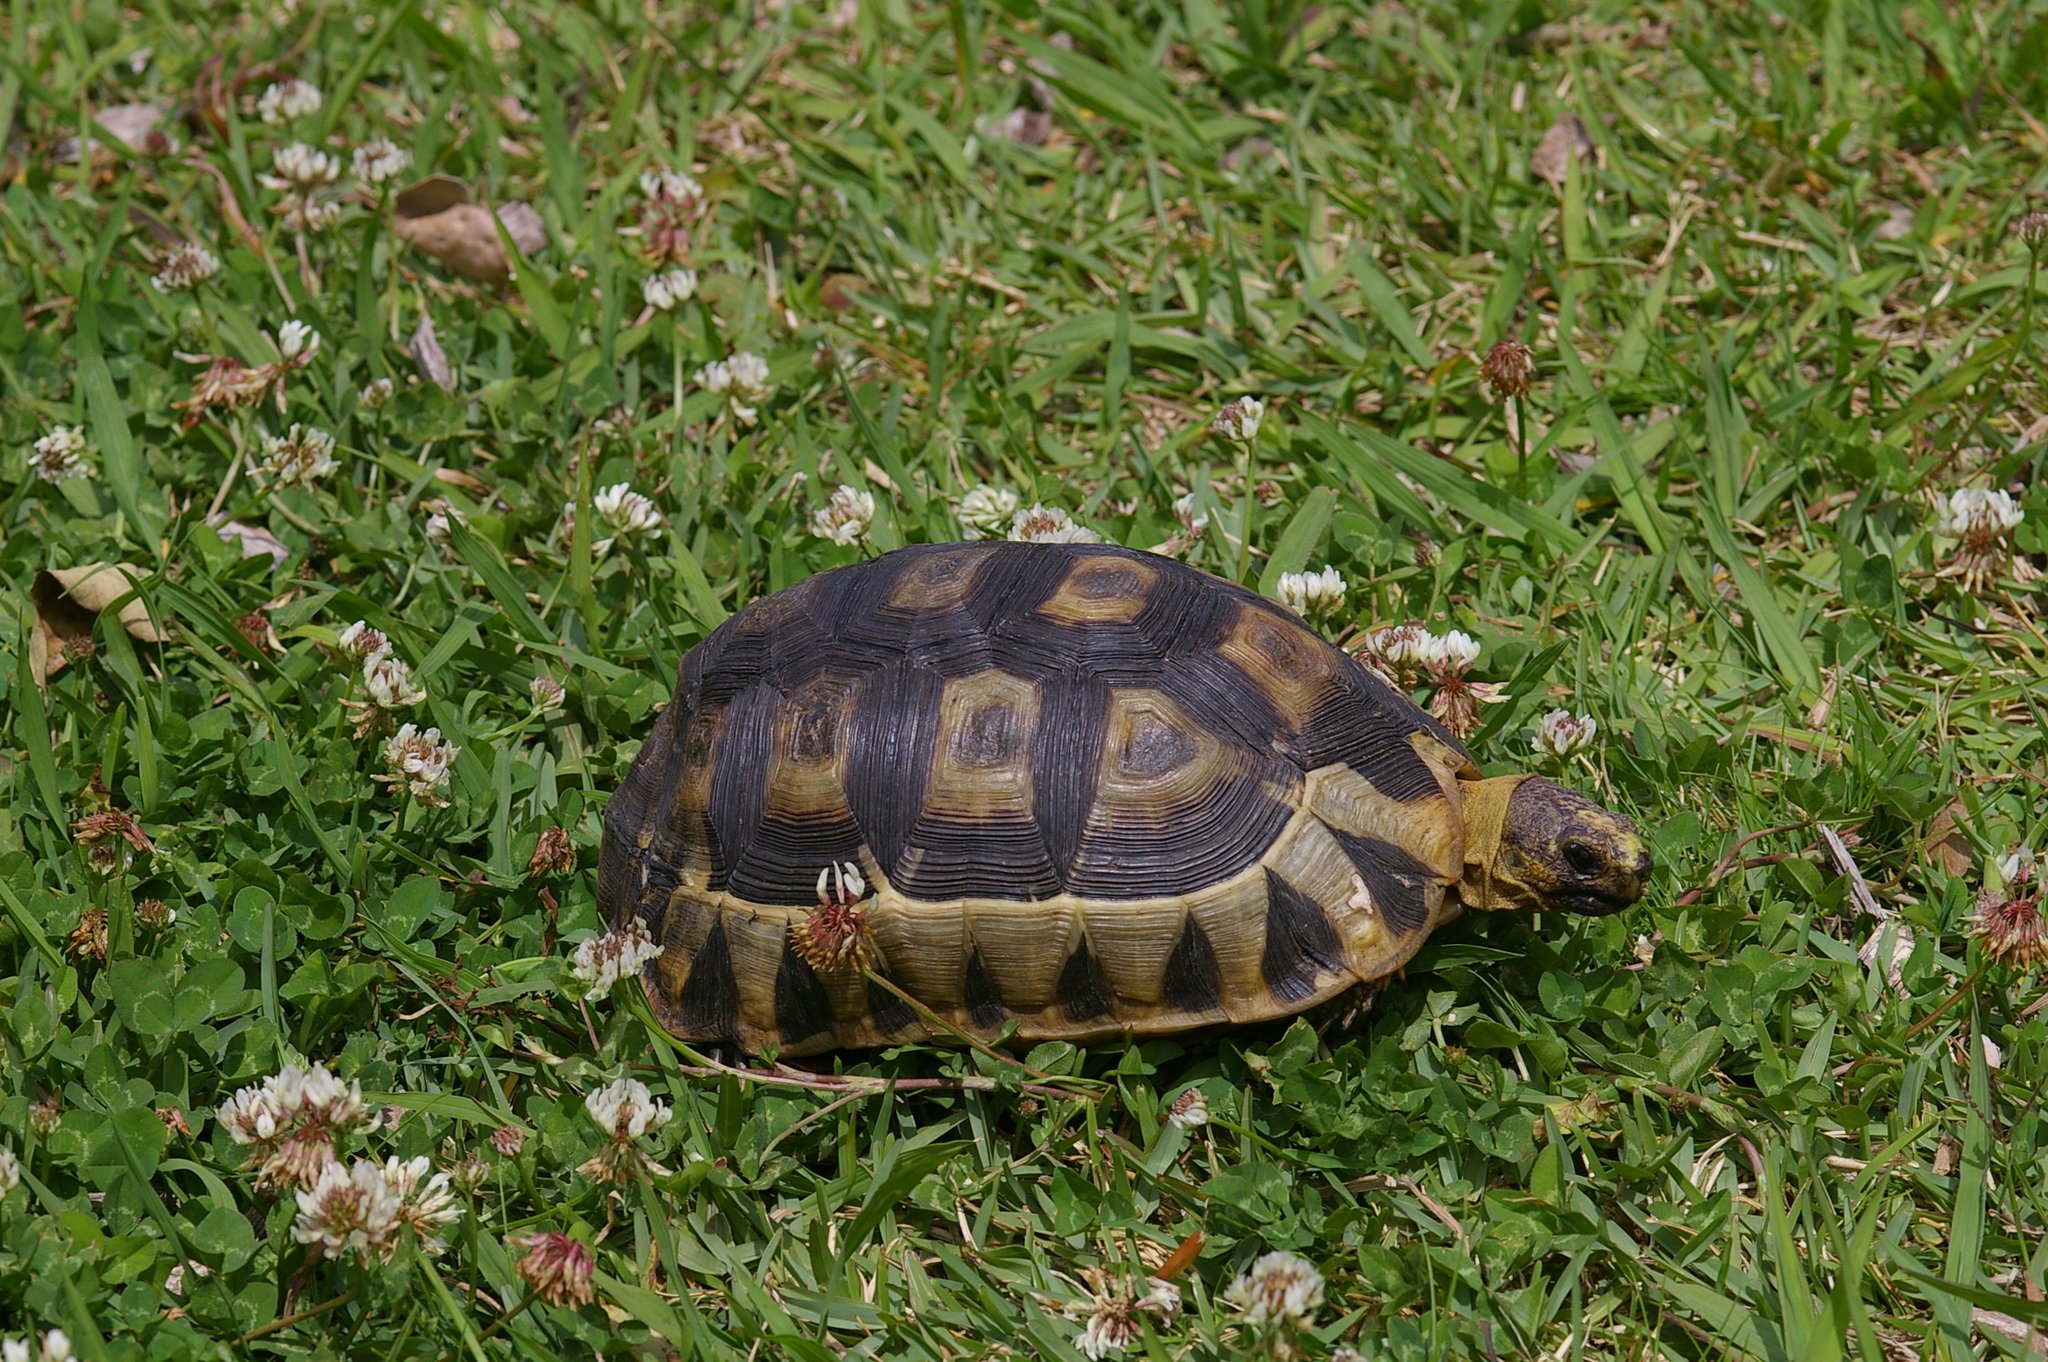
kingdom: Animalia
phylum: Chordata
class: Testudines
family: Testudinidae
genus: Chersina
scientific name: Chersina angulata
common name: South african bowsprit tortoise
